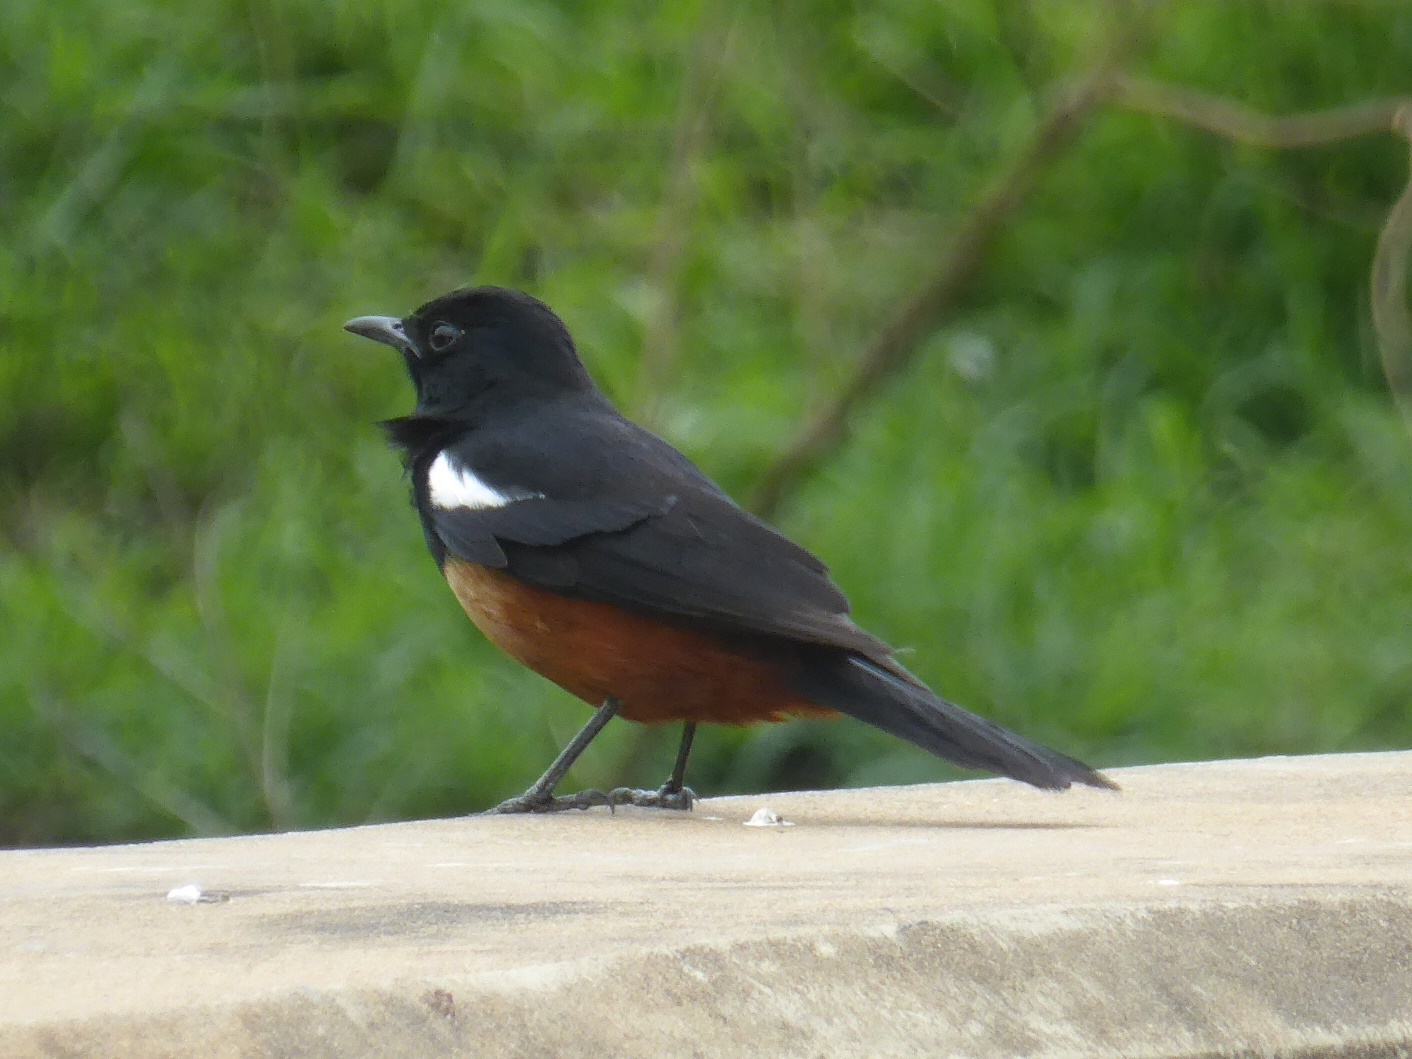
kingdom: Animalia
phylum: Chordata
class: Aves
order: Passeriformes
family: Muscicapidae
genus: Thamnolaea
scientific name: Thamnolaea cinnamomeiventris
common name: Mocking cliff chat
